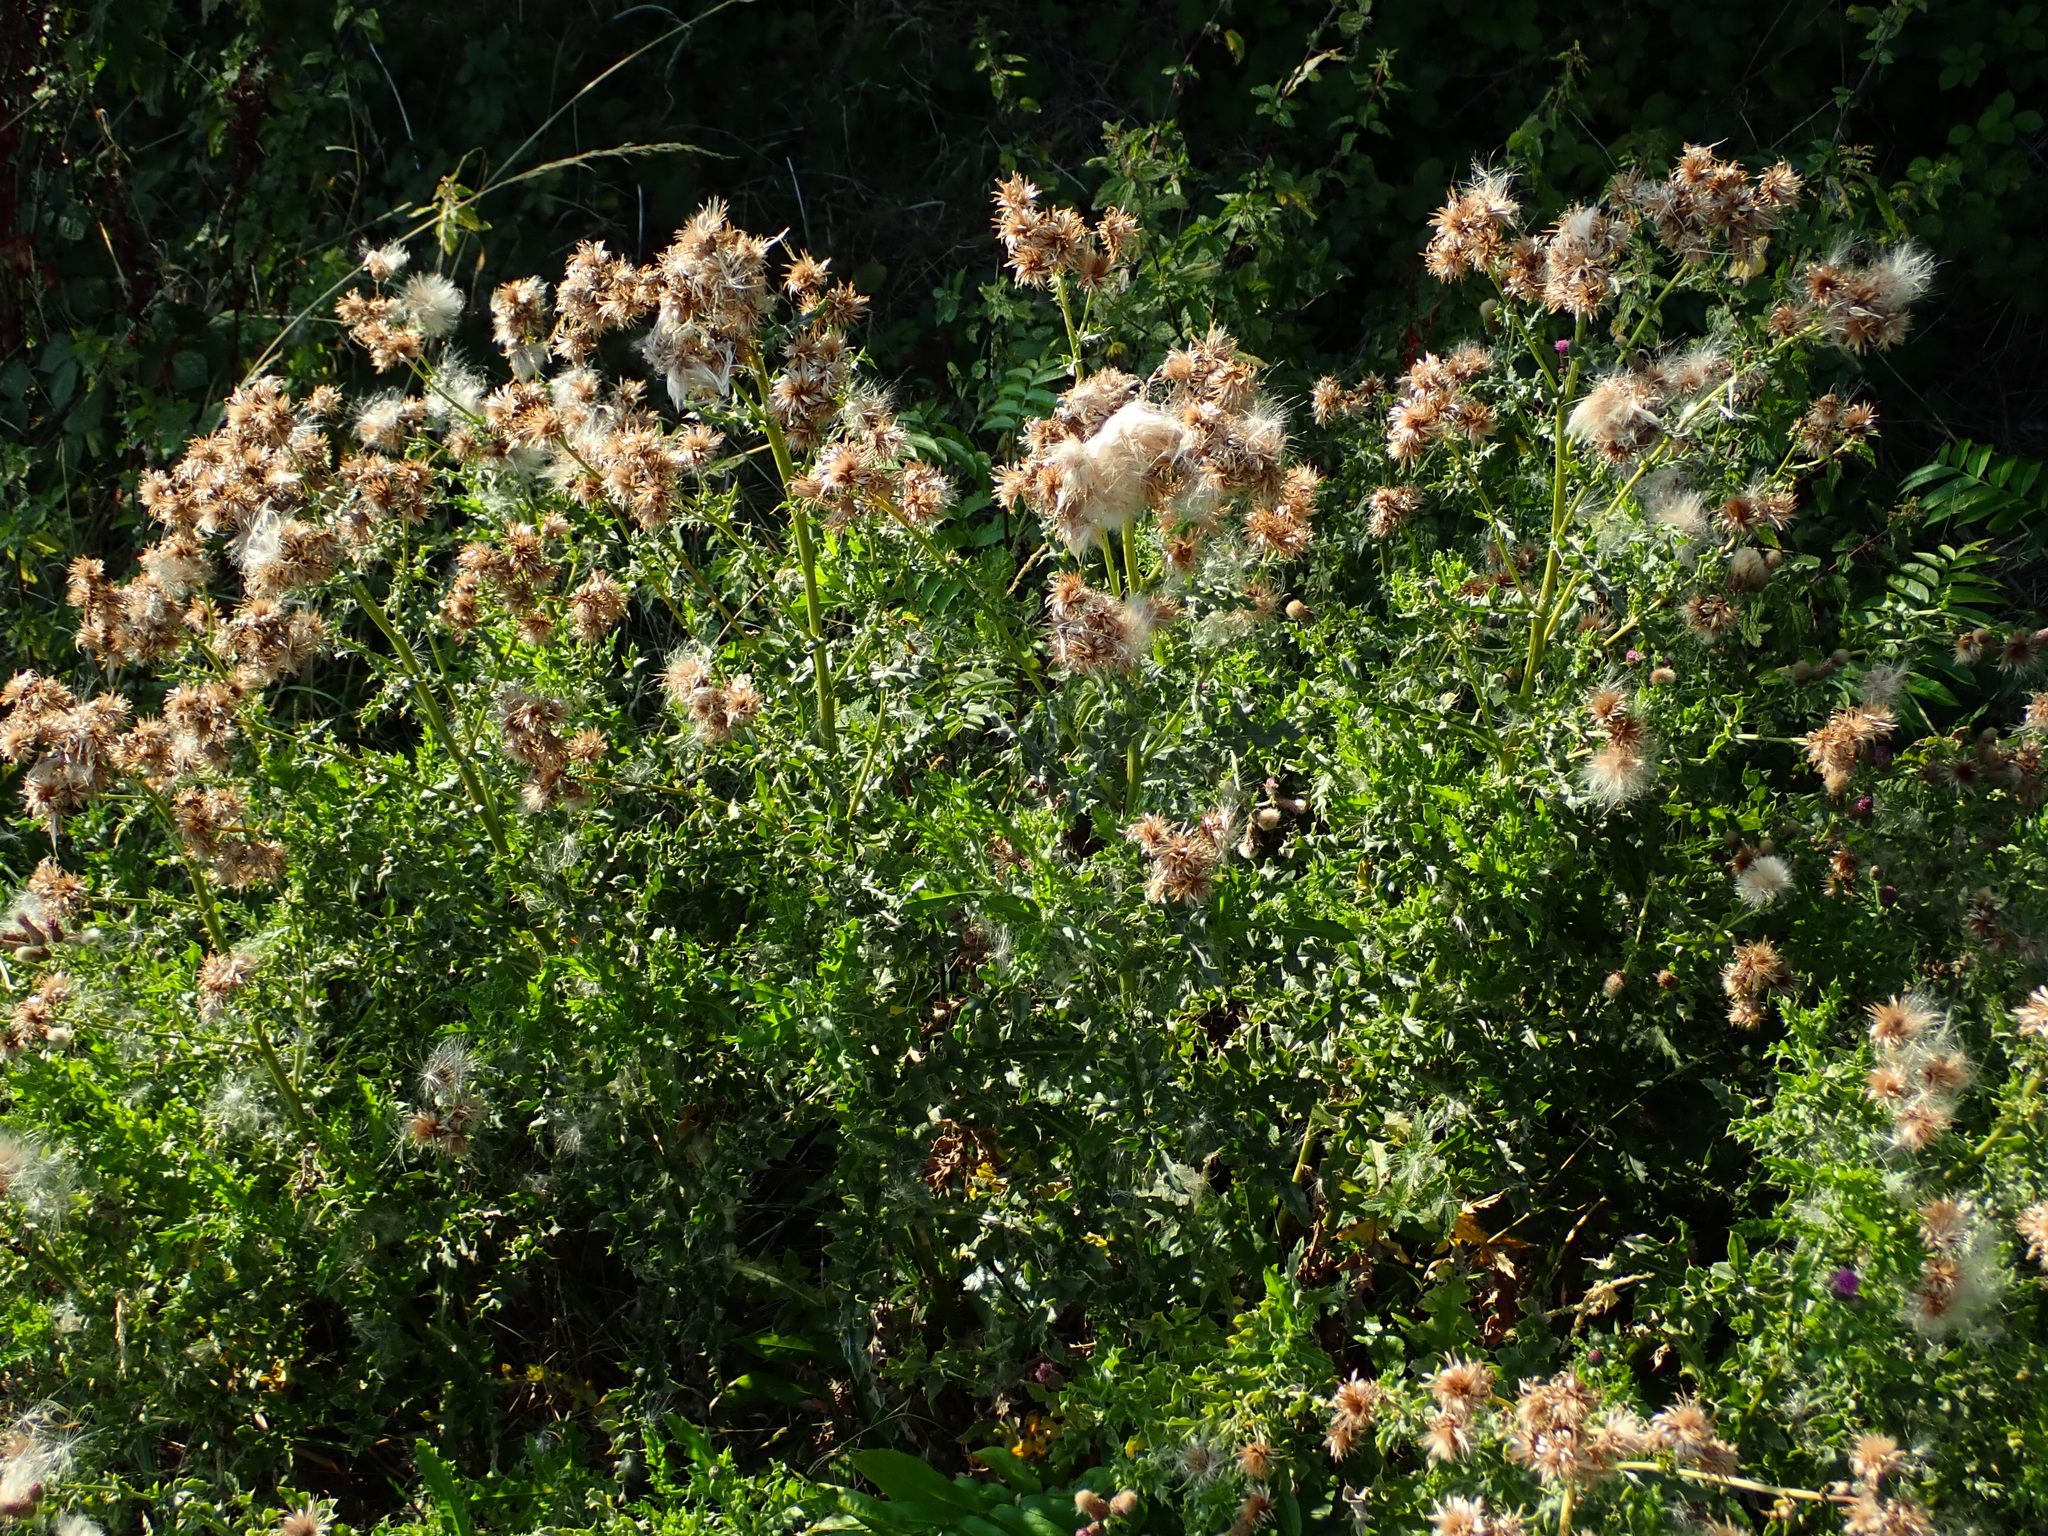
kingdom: Plantae
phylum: Tracheophyta
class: Magnoliopsida
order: Asterales
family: Asteraceae
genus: Cirsium
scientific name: Cirsium arvense
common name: Creeping thistle
